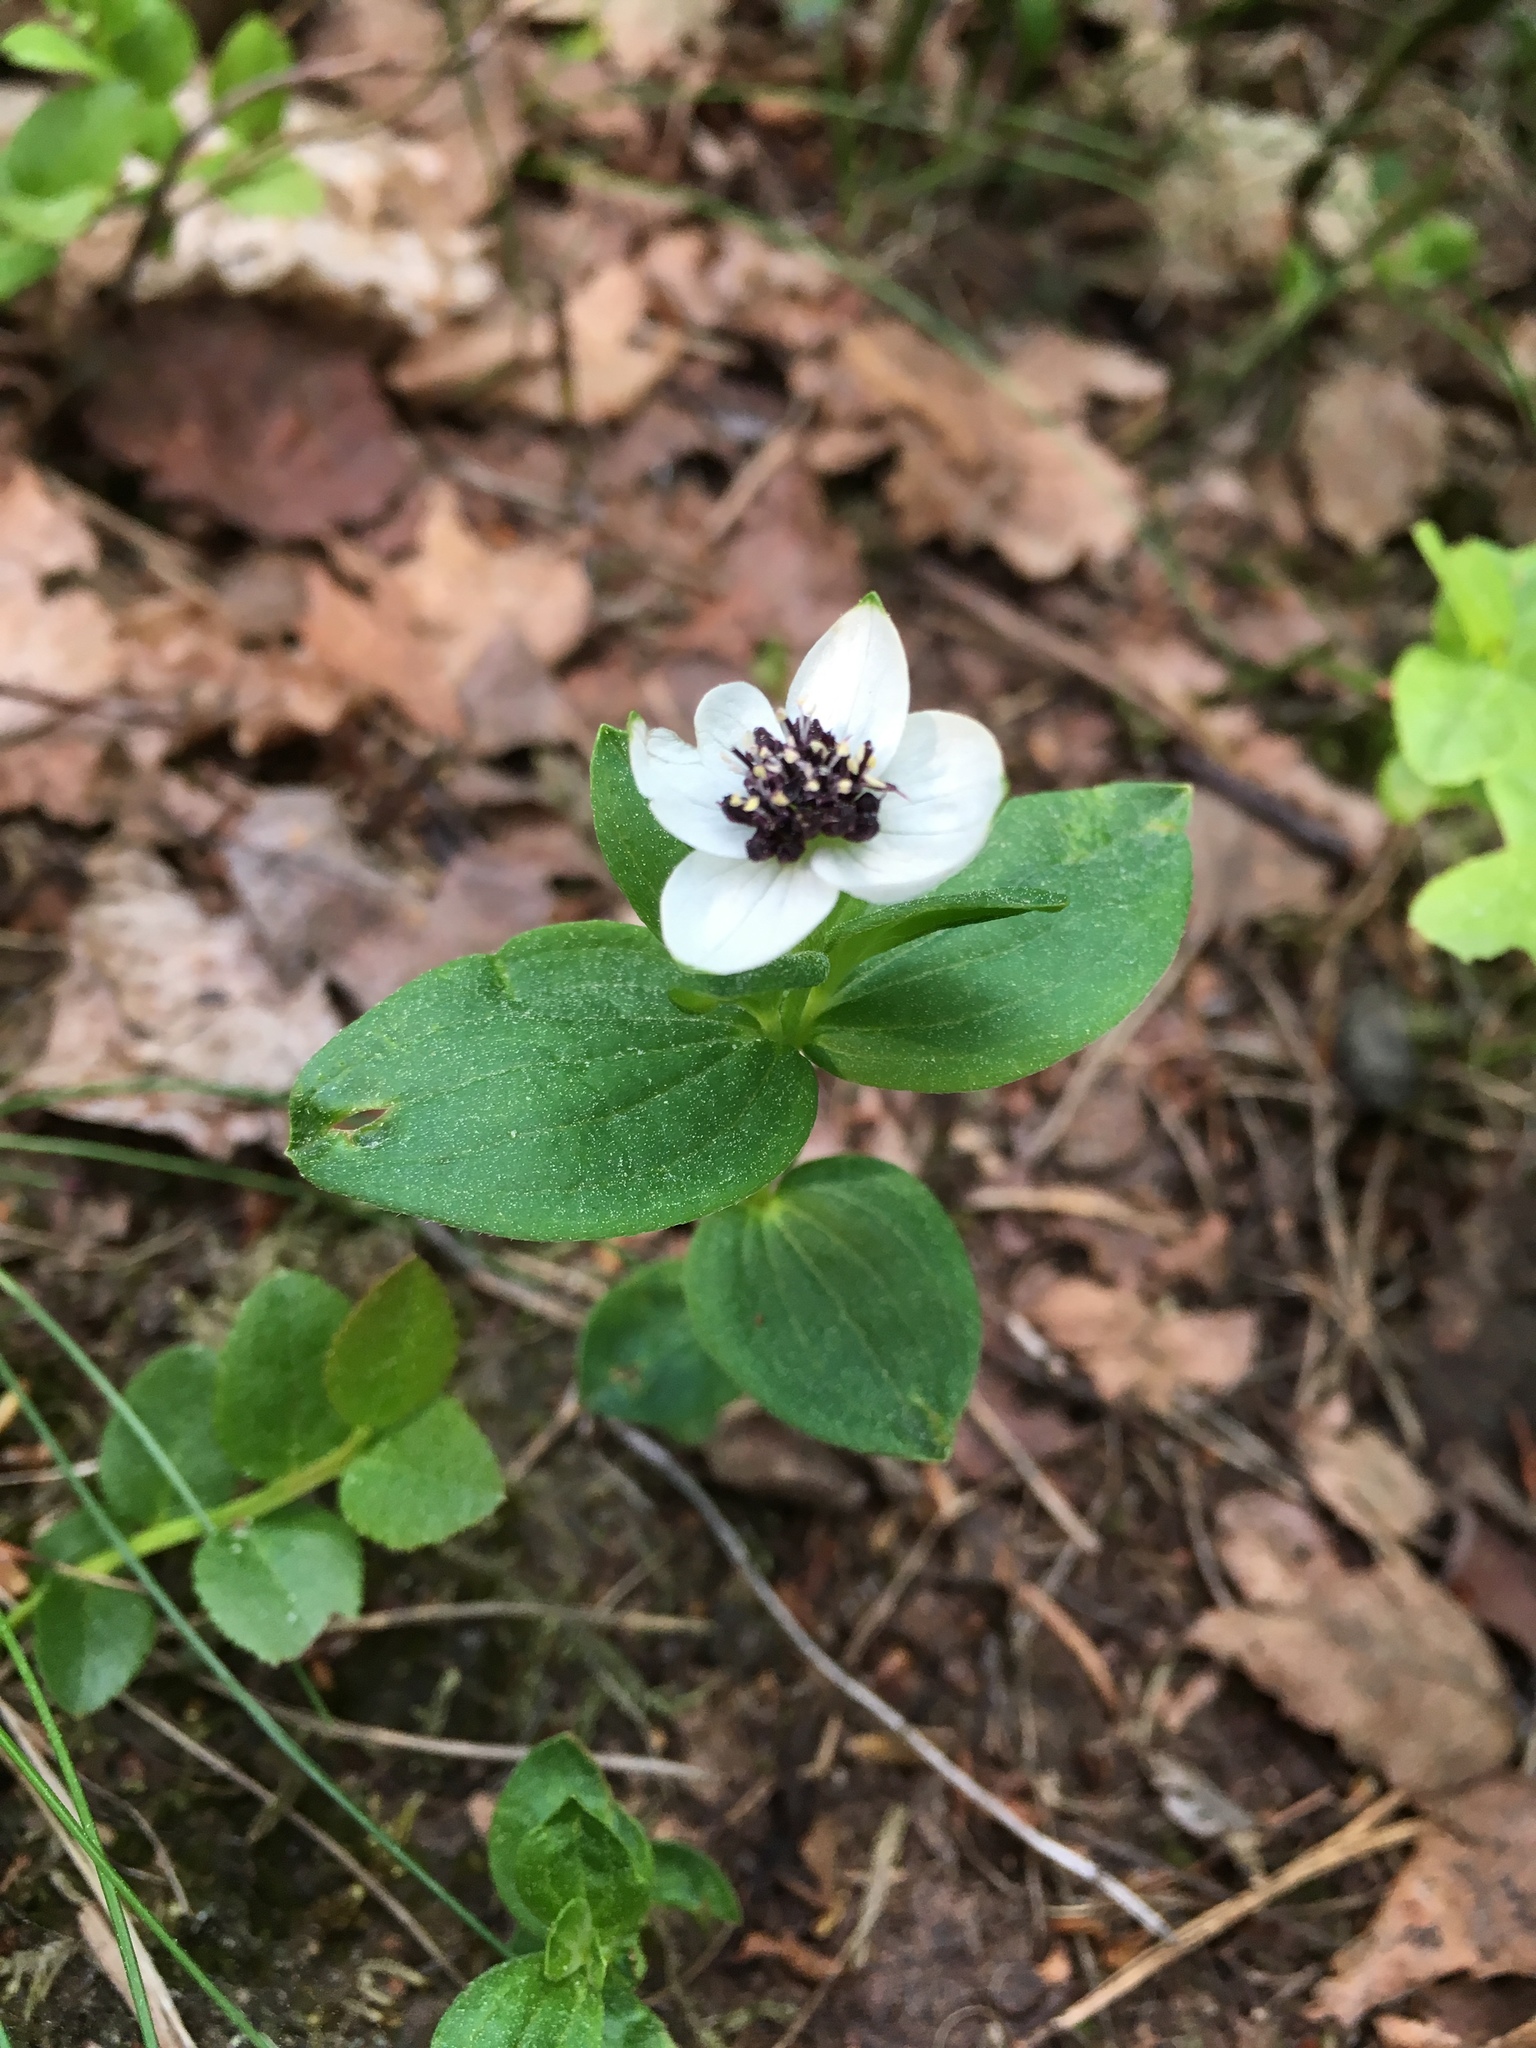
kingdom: Plantae
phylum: Tracheophyta
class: Magnoliopsida
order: Cornales
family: Cornaceae
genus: Cornus
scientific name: Cornus suecica
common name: Dwarf cornel
